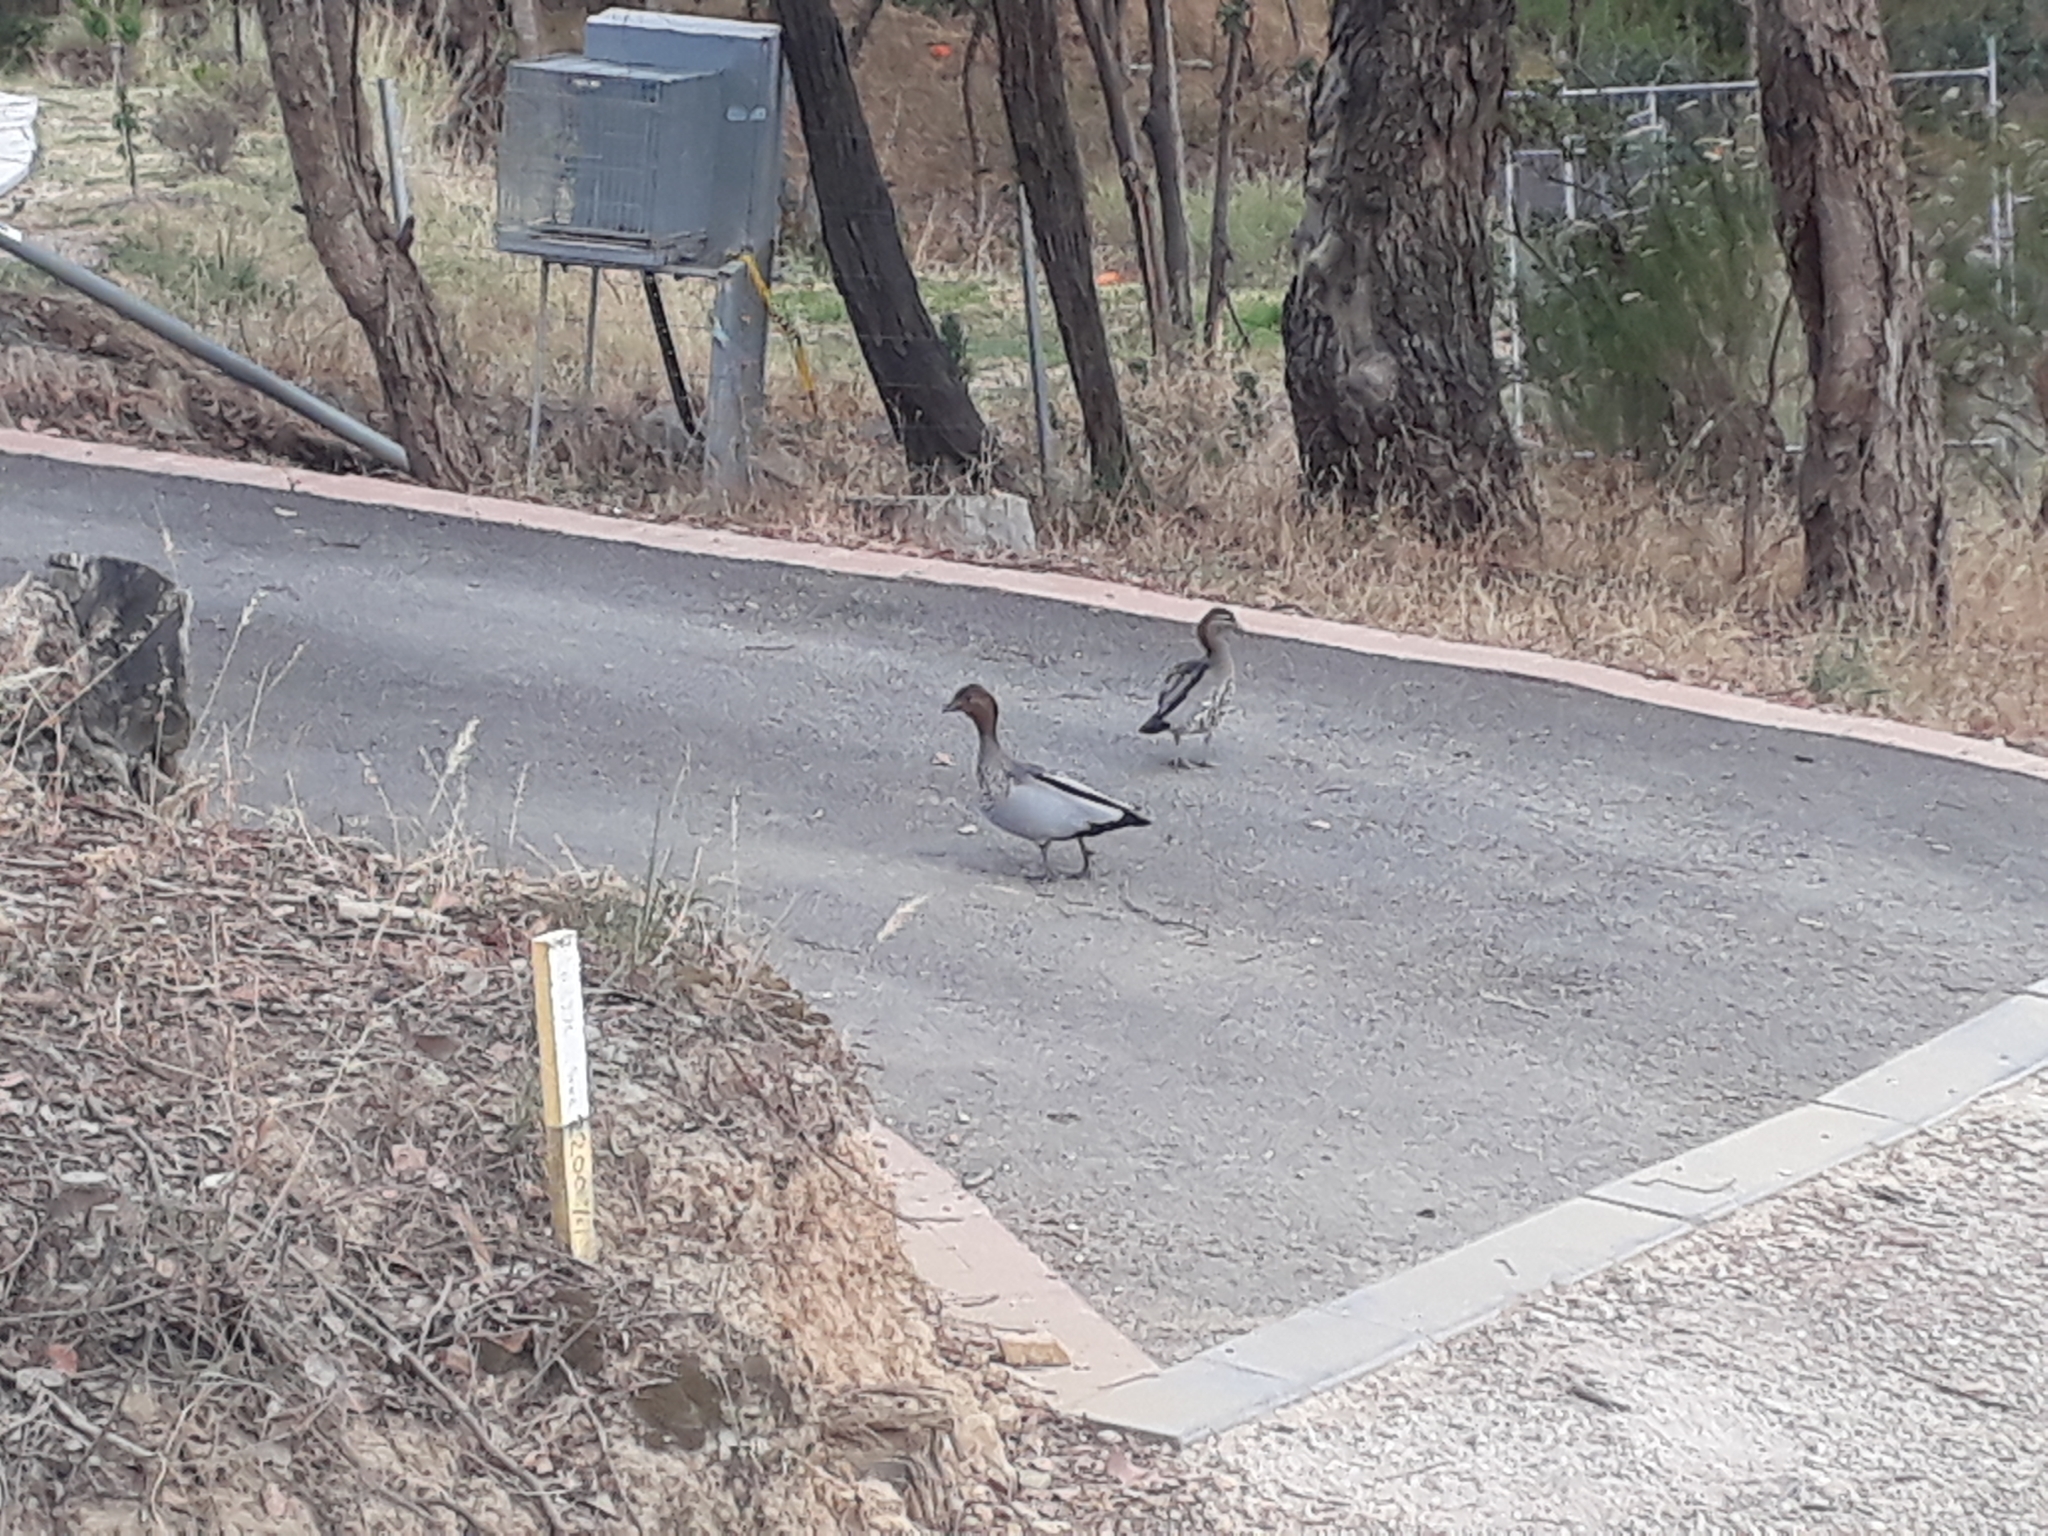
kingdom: Animalia
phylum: Chordata
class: Aves
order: Anseriformes
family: Anatidae
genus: Chenonetta
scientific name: Chenonetta jubata
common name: Maned duck
